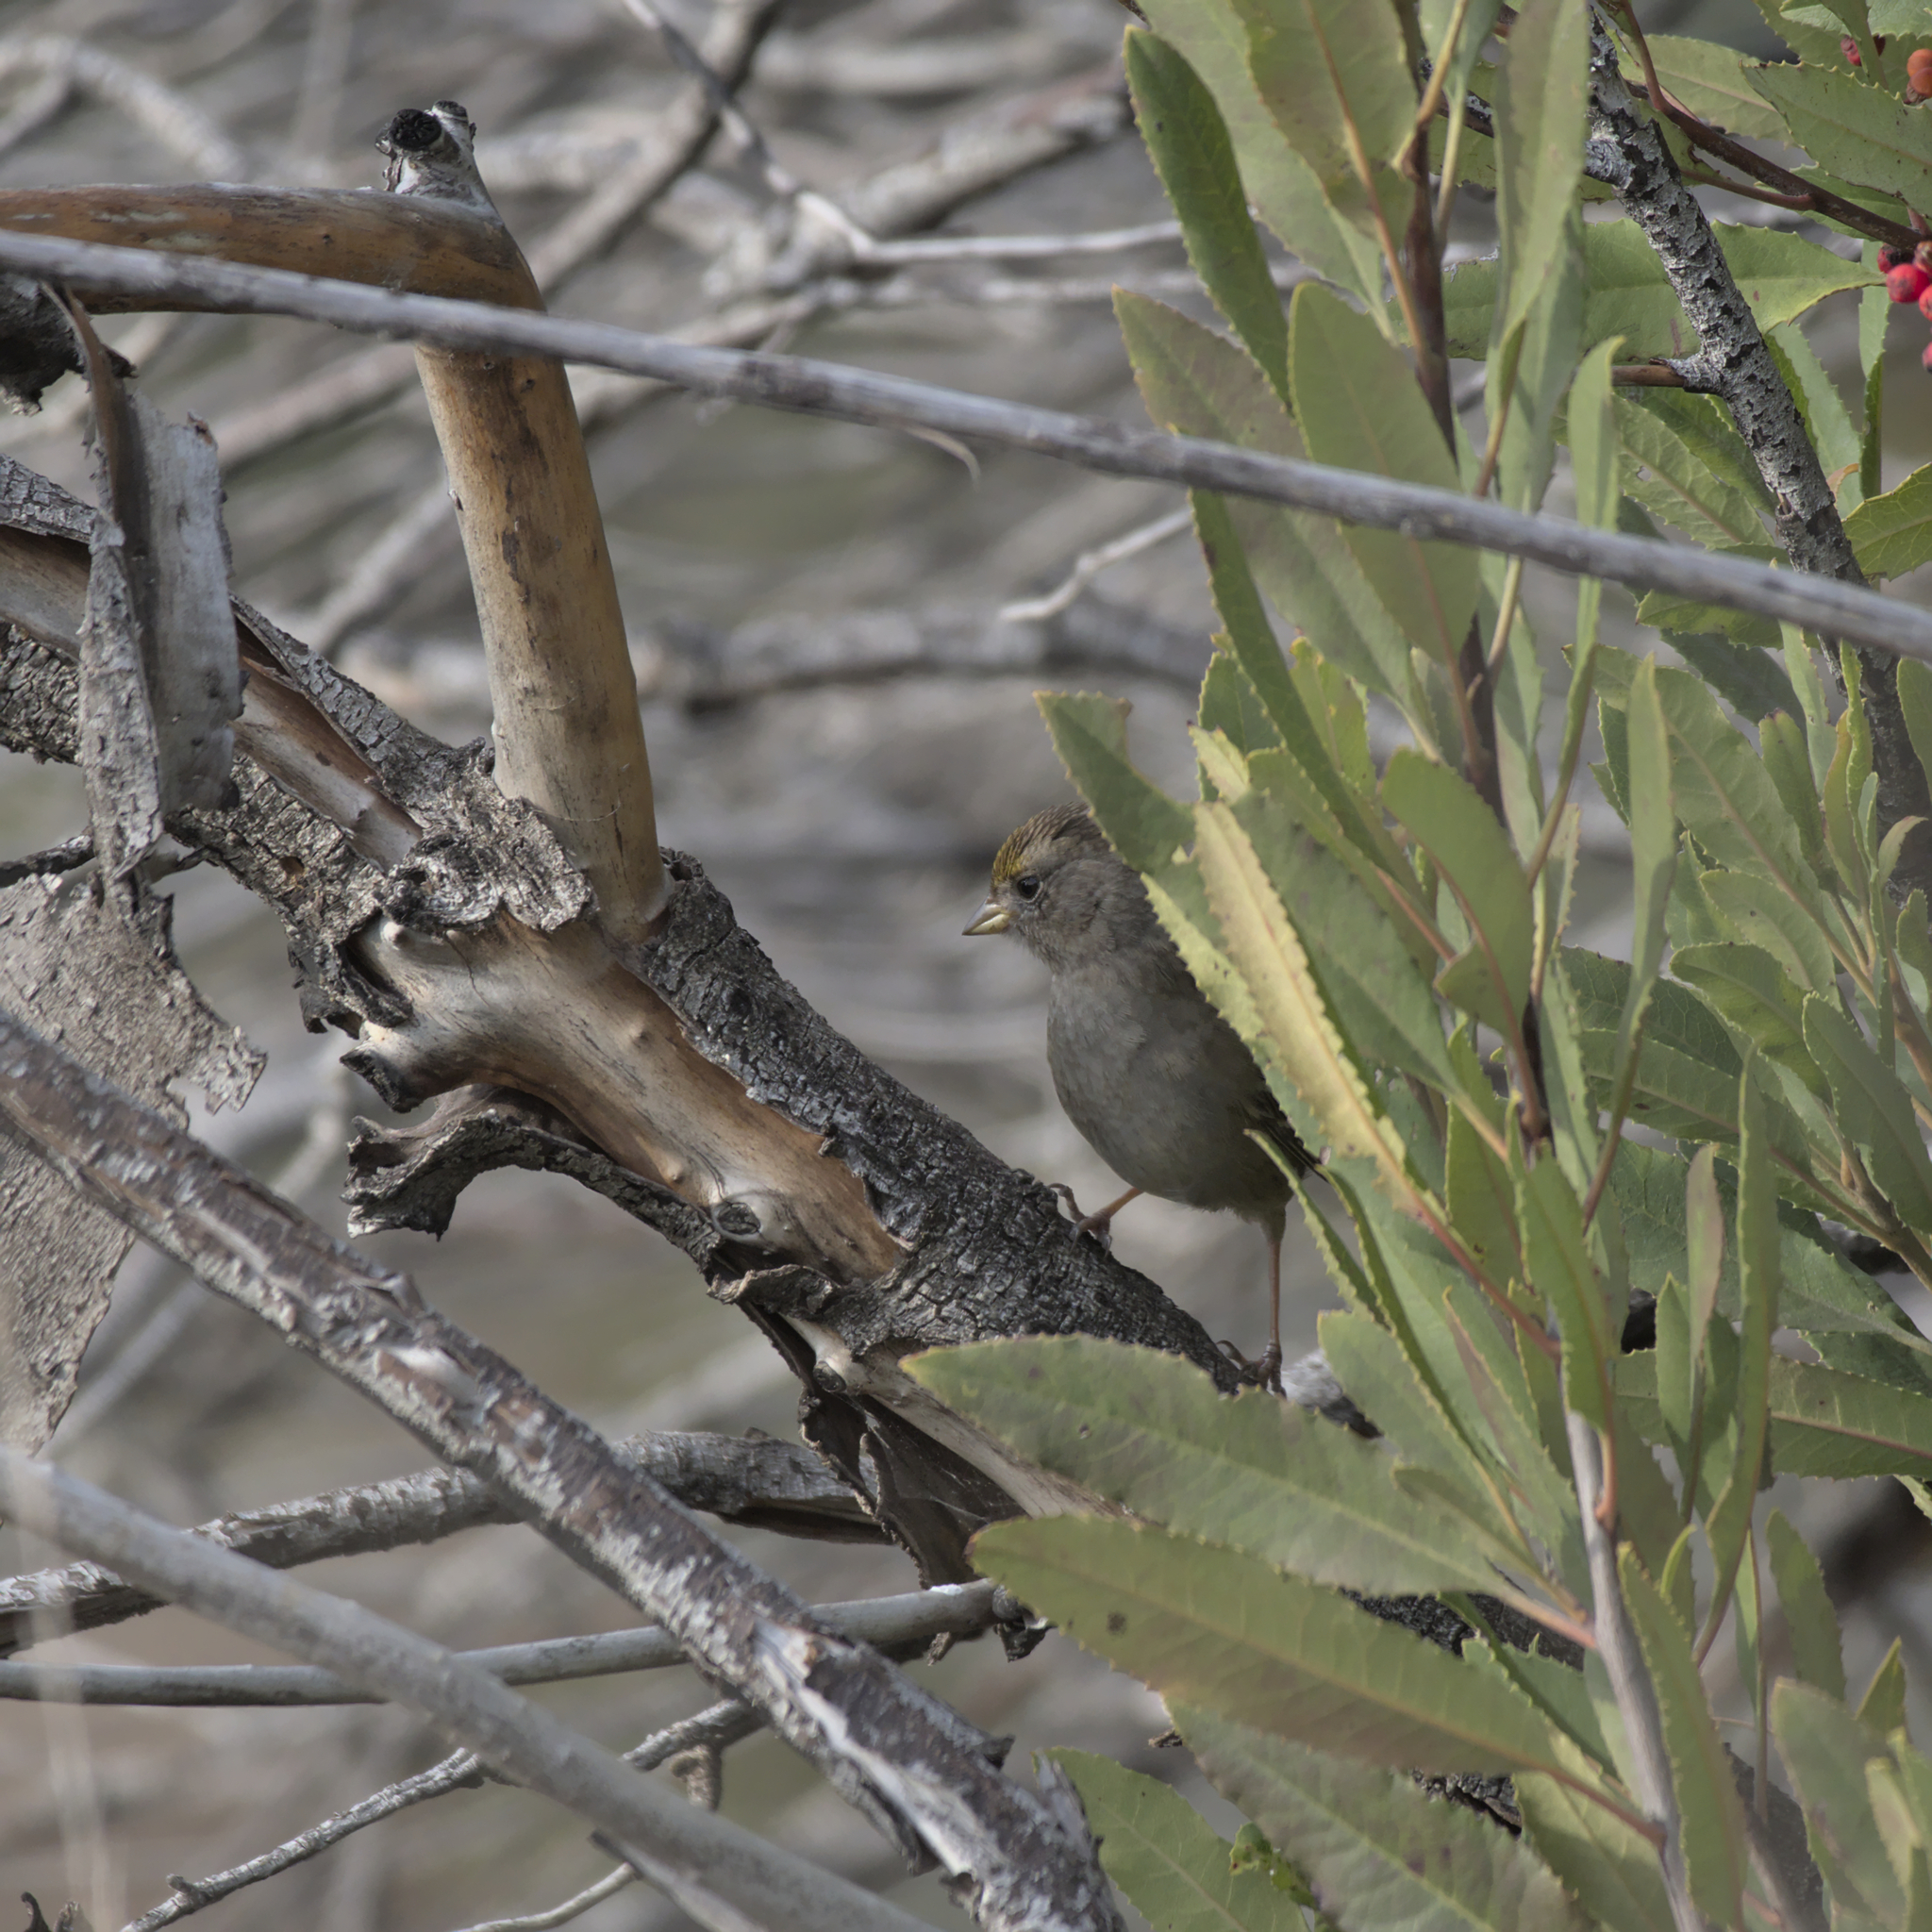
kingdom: Animalia
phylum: Chordata
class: Aves
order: Passeriformes
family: Passerellidae
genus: Zonotrichia
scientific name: Zonotrichia atricapilla
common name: Golden-crowned sparrow
